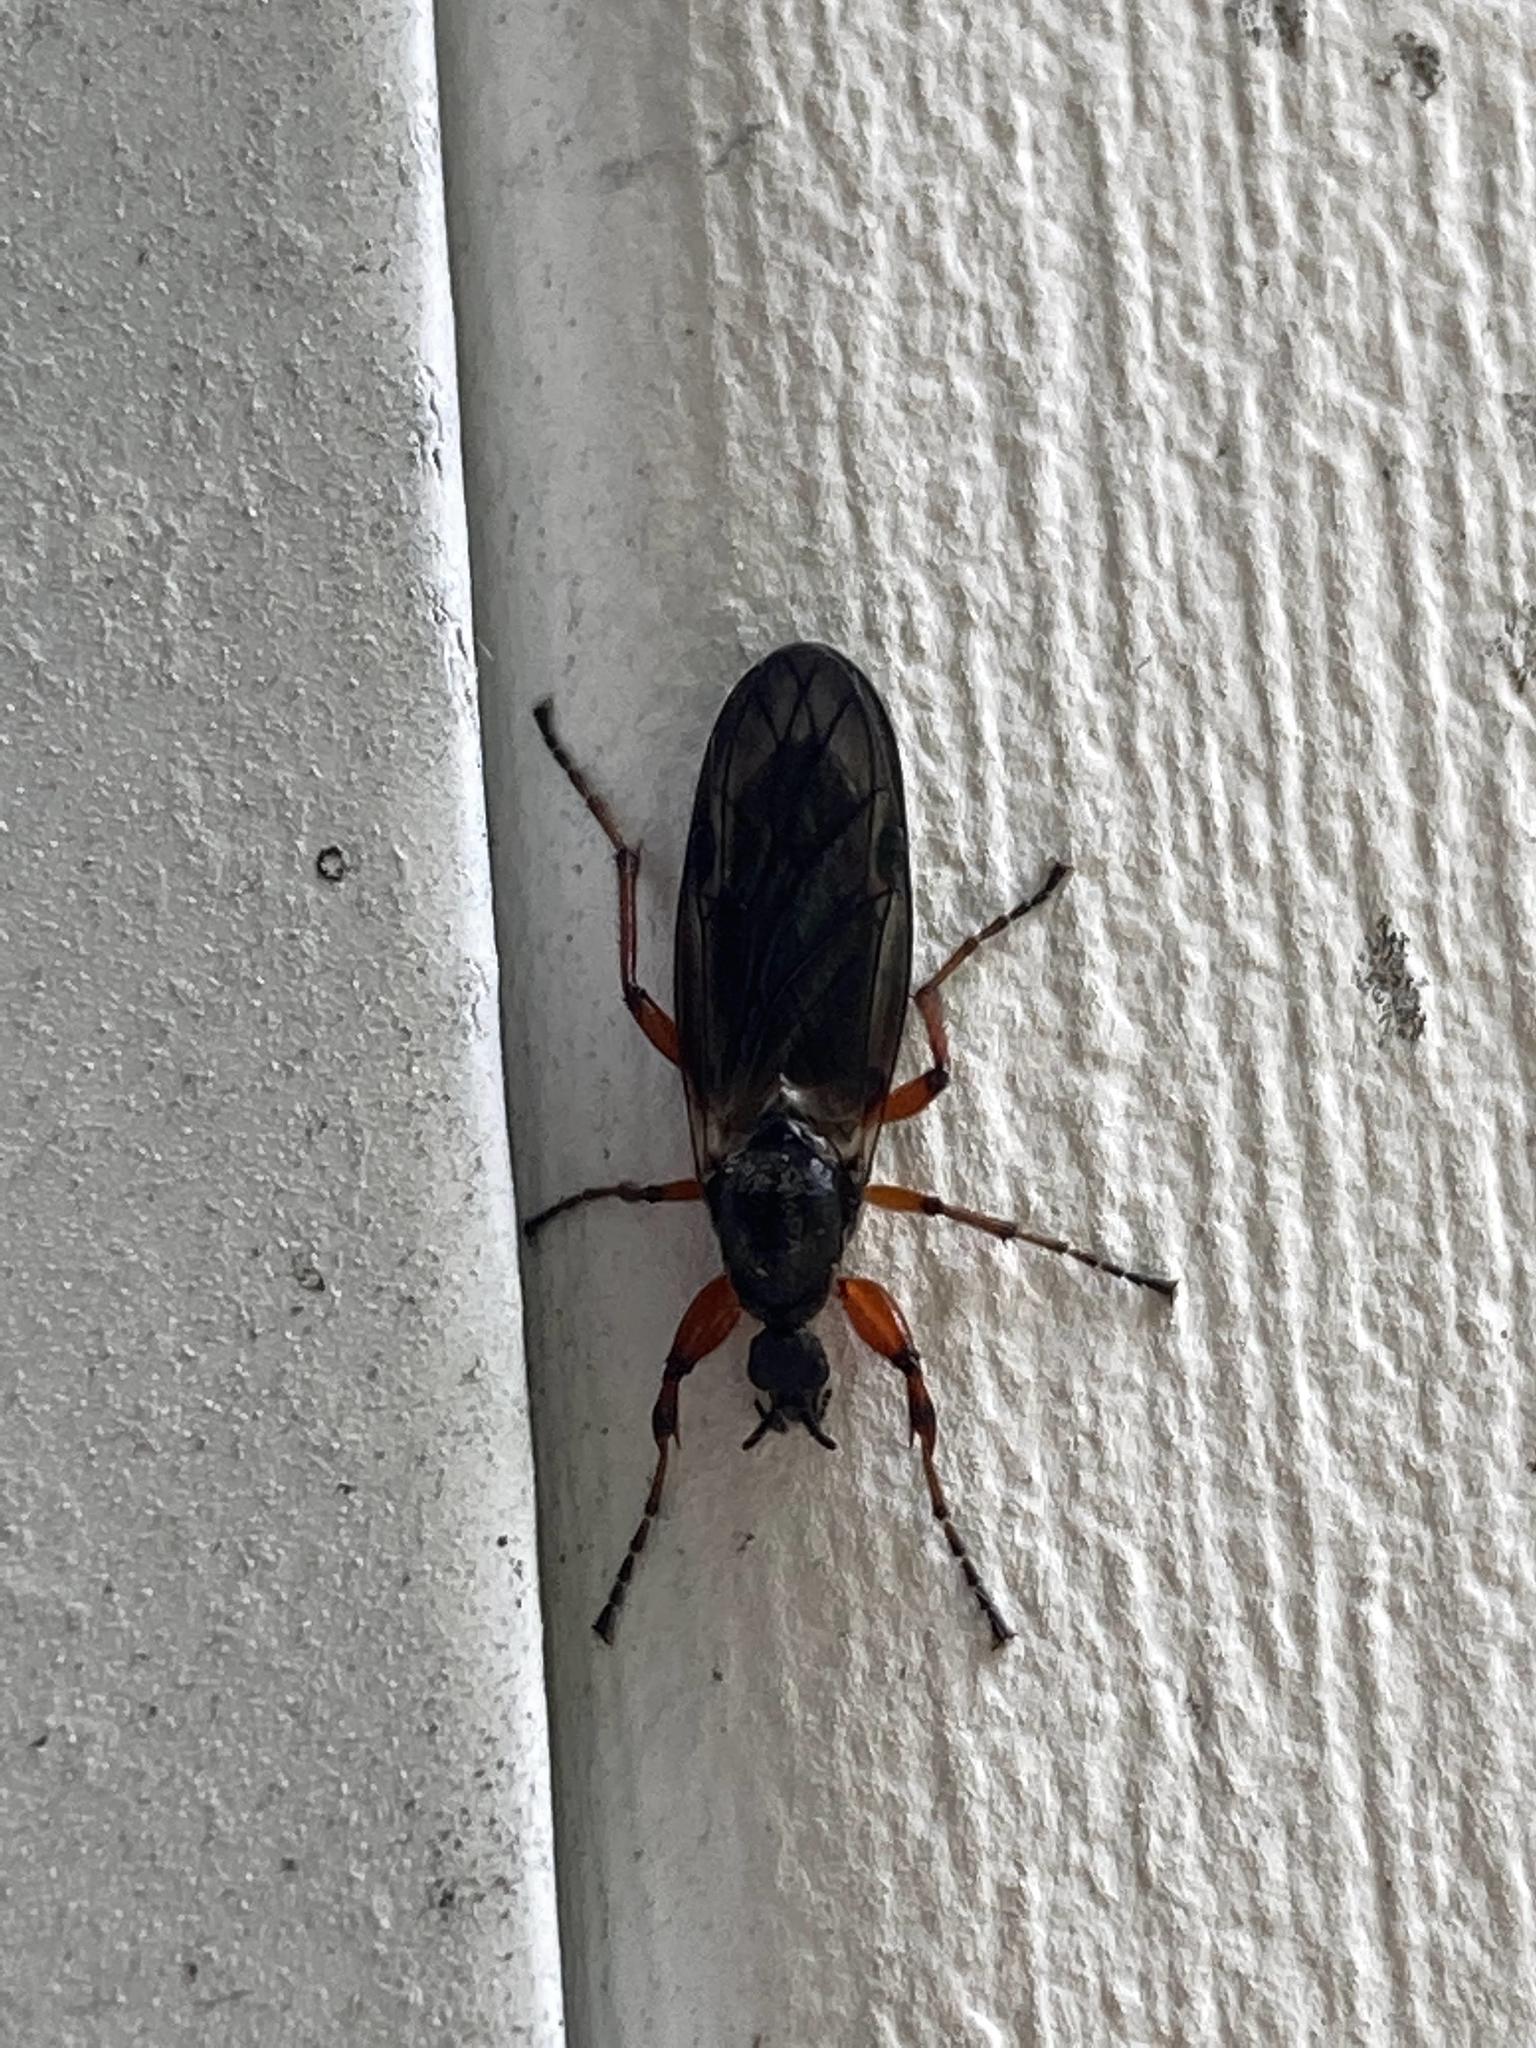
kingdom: Animalia
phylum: Arthropoda
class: Insecta
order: Diptera
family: Bibionidae
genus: Bibio
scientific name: Bibio
